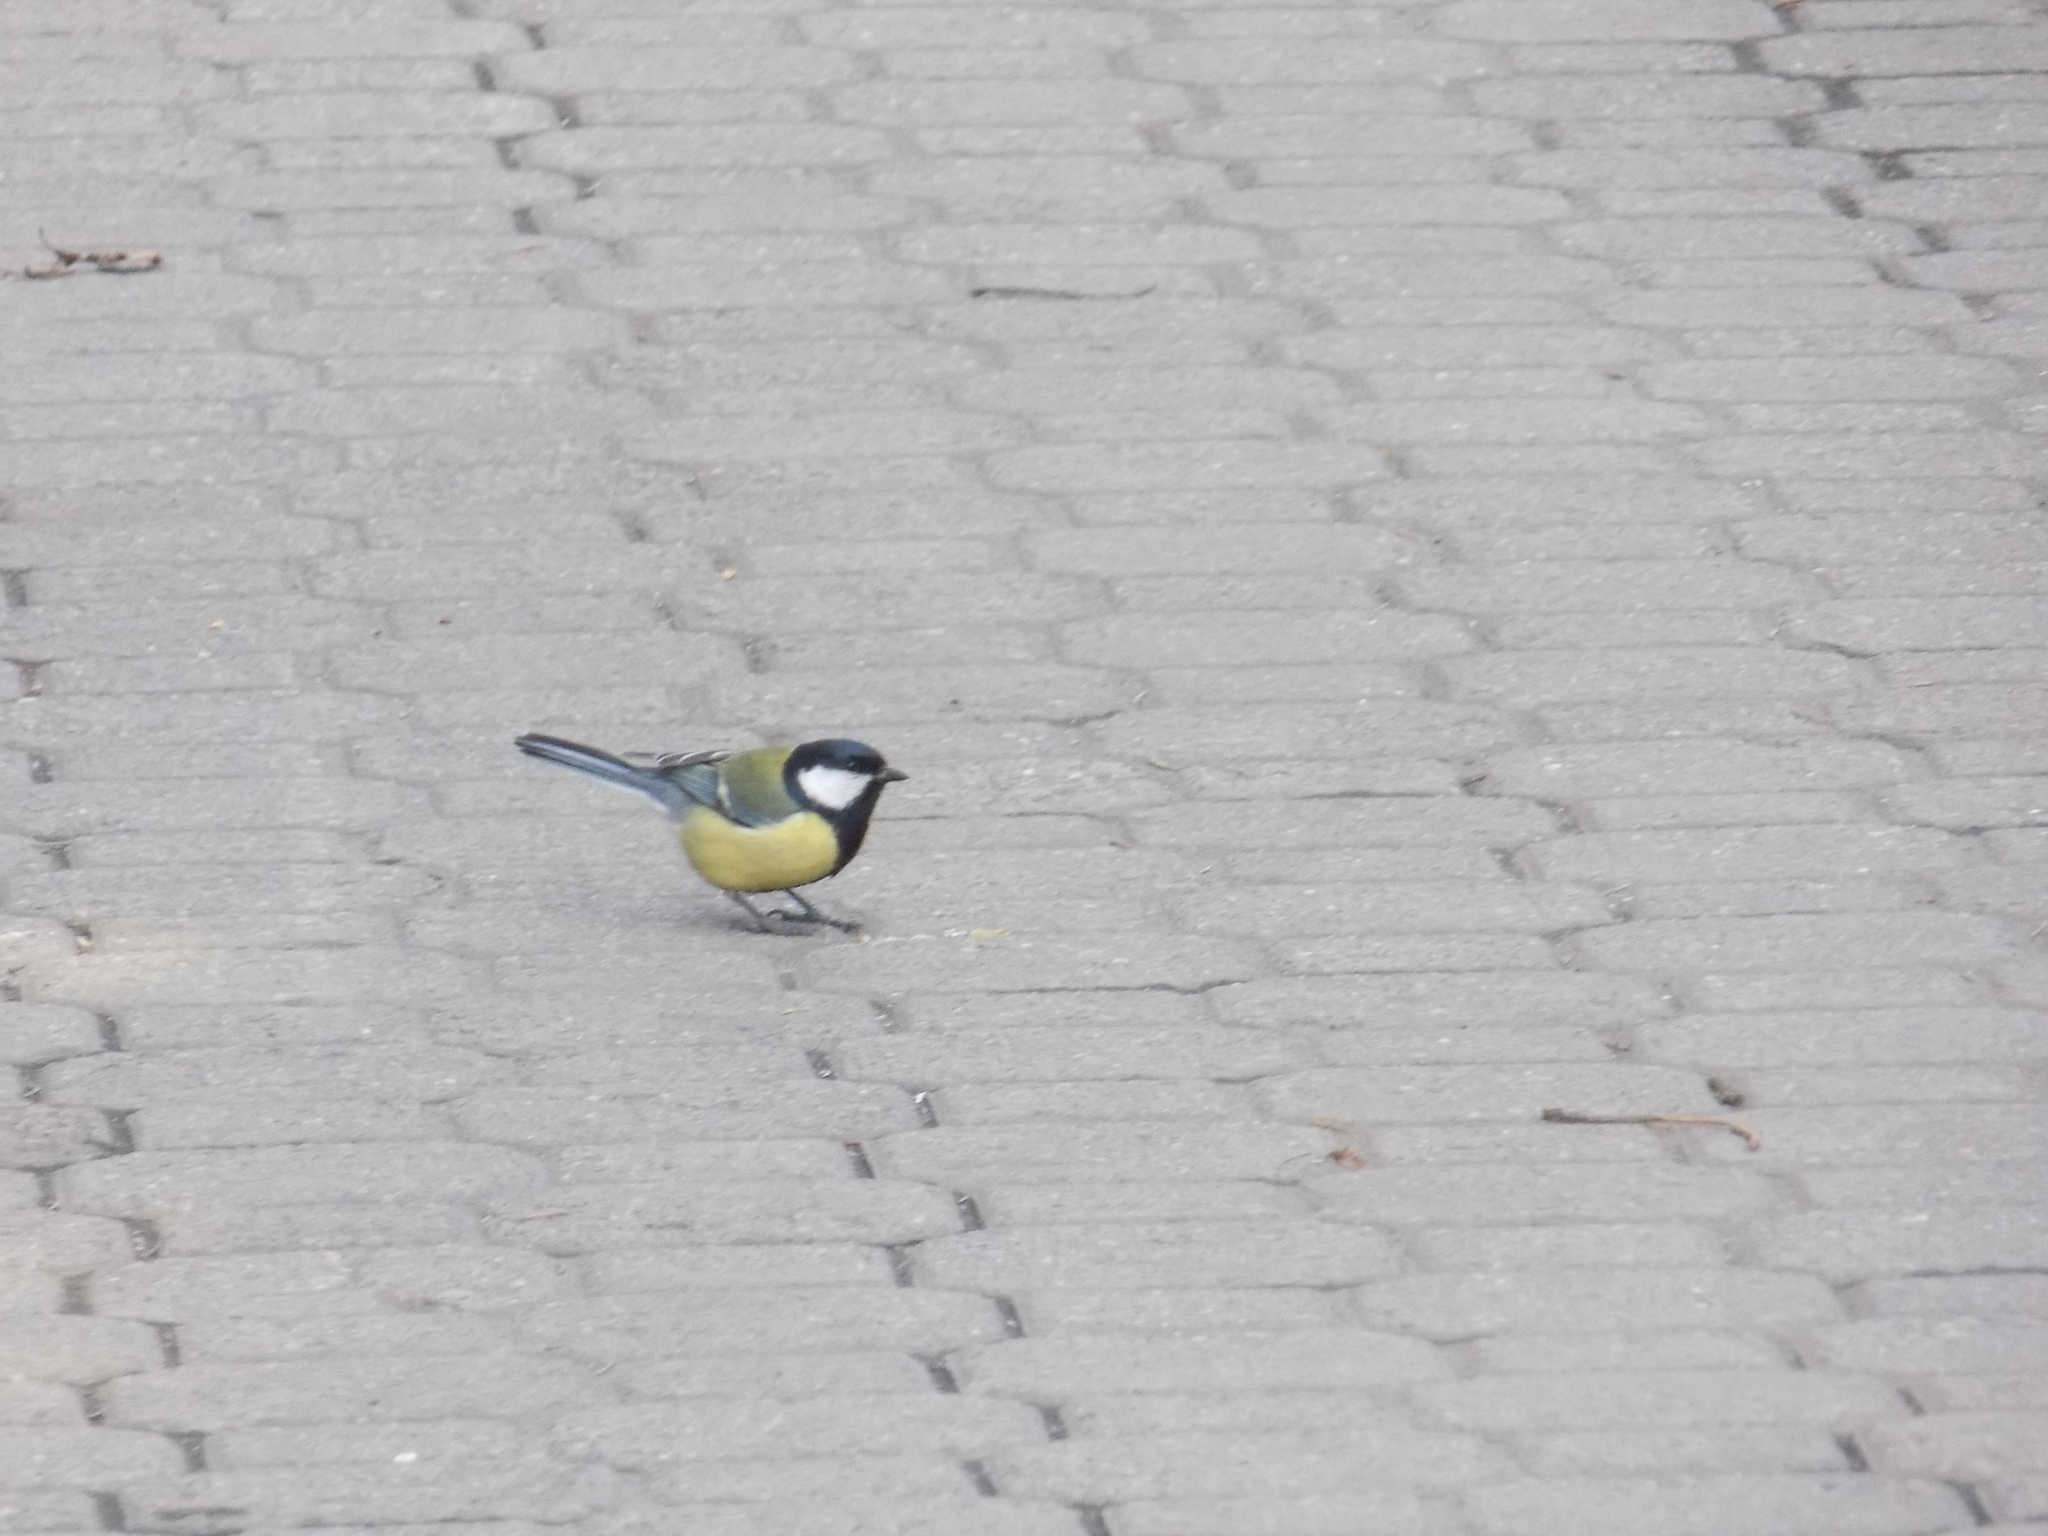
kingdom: Animalia
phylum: Chordata
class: Aves
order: Passeriformes
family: Paridae
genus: Parus
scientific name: Parus major
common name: Great tit
